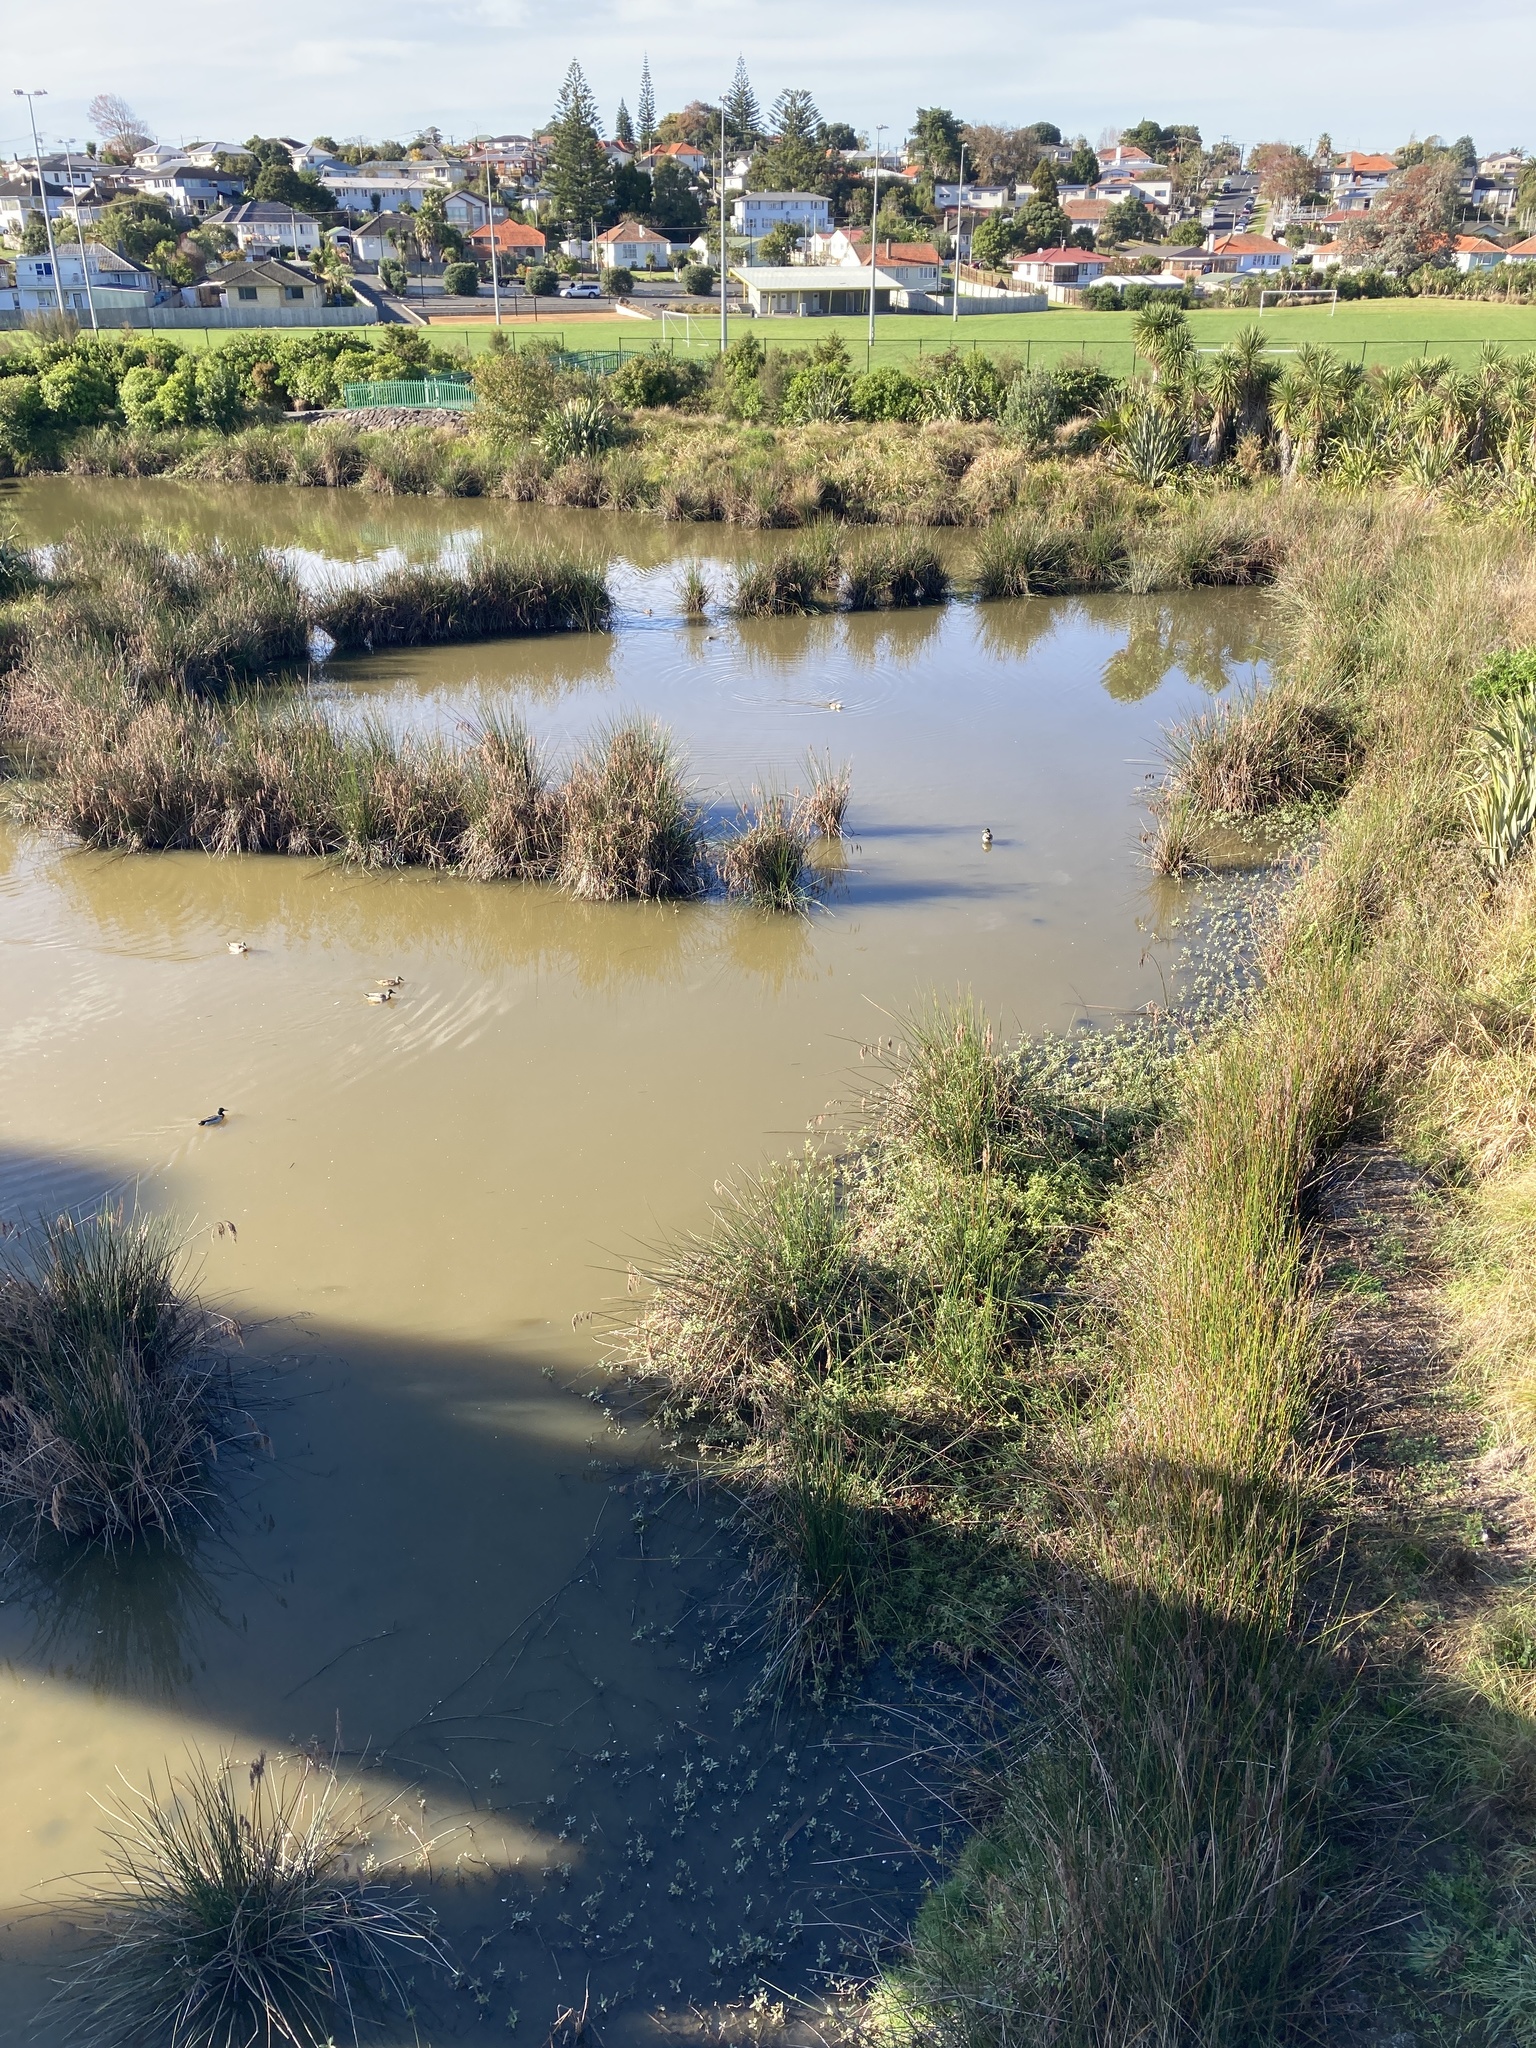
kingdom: Animalia
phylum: Chordata
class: Aves
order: Anseriformes
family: Anatidae
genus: Tadorna
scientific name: Tadorna variegata
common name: Paradise shelduck
